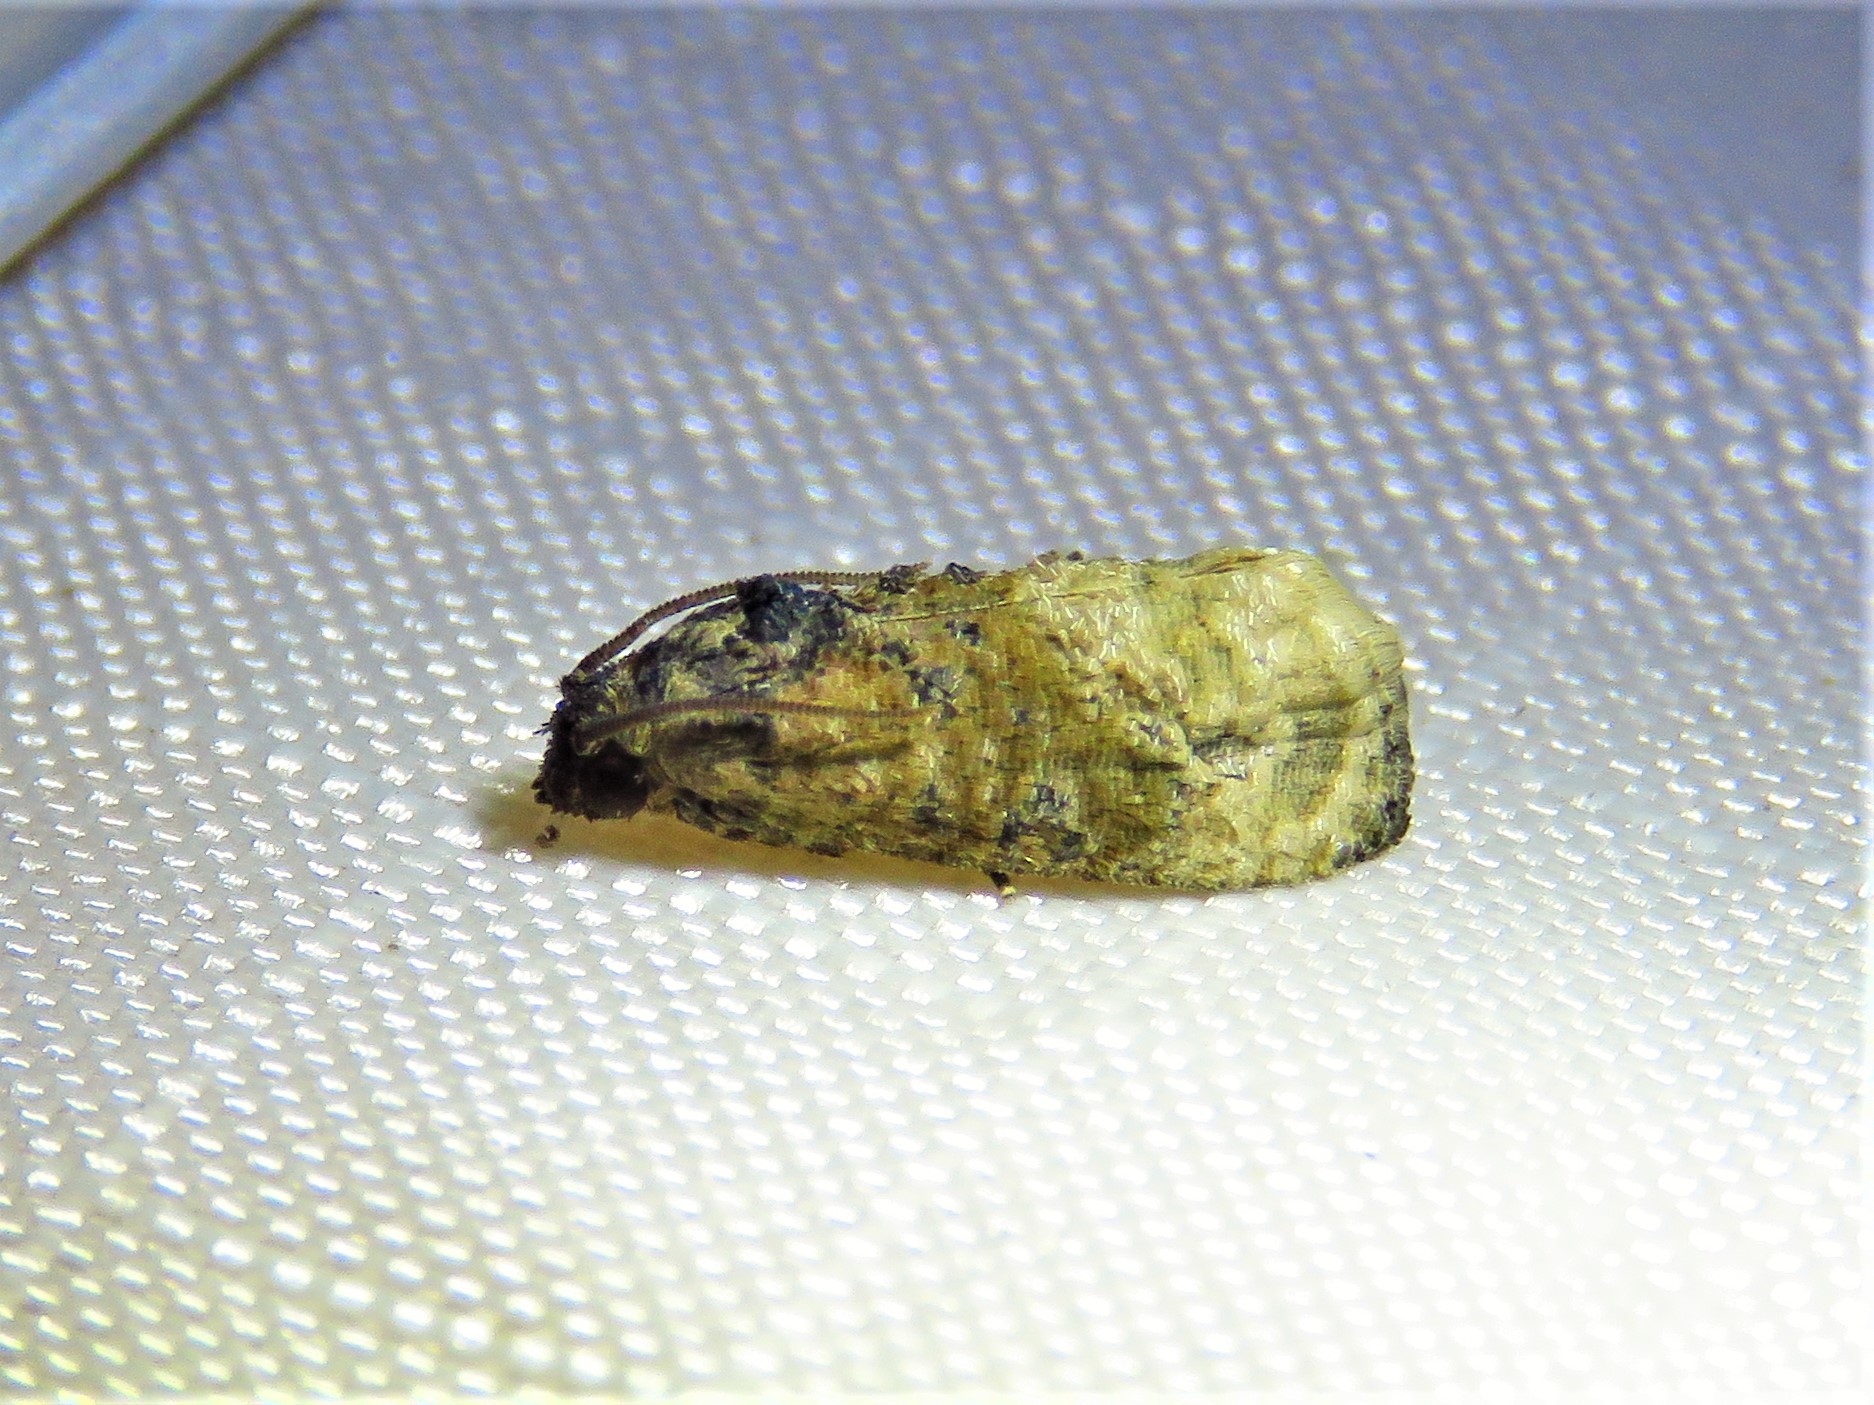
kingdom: Animalia
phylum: Arthropoda
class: Insecta
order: Lepidoptera
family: Tortricidae
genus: Ecdytolopha
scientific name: Ecdytolopha mana
